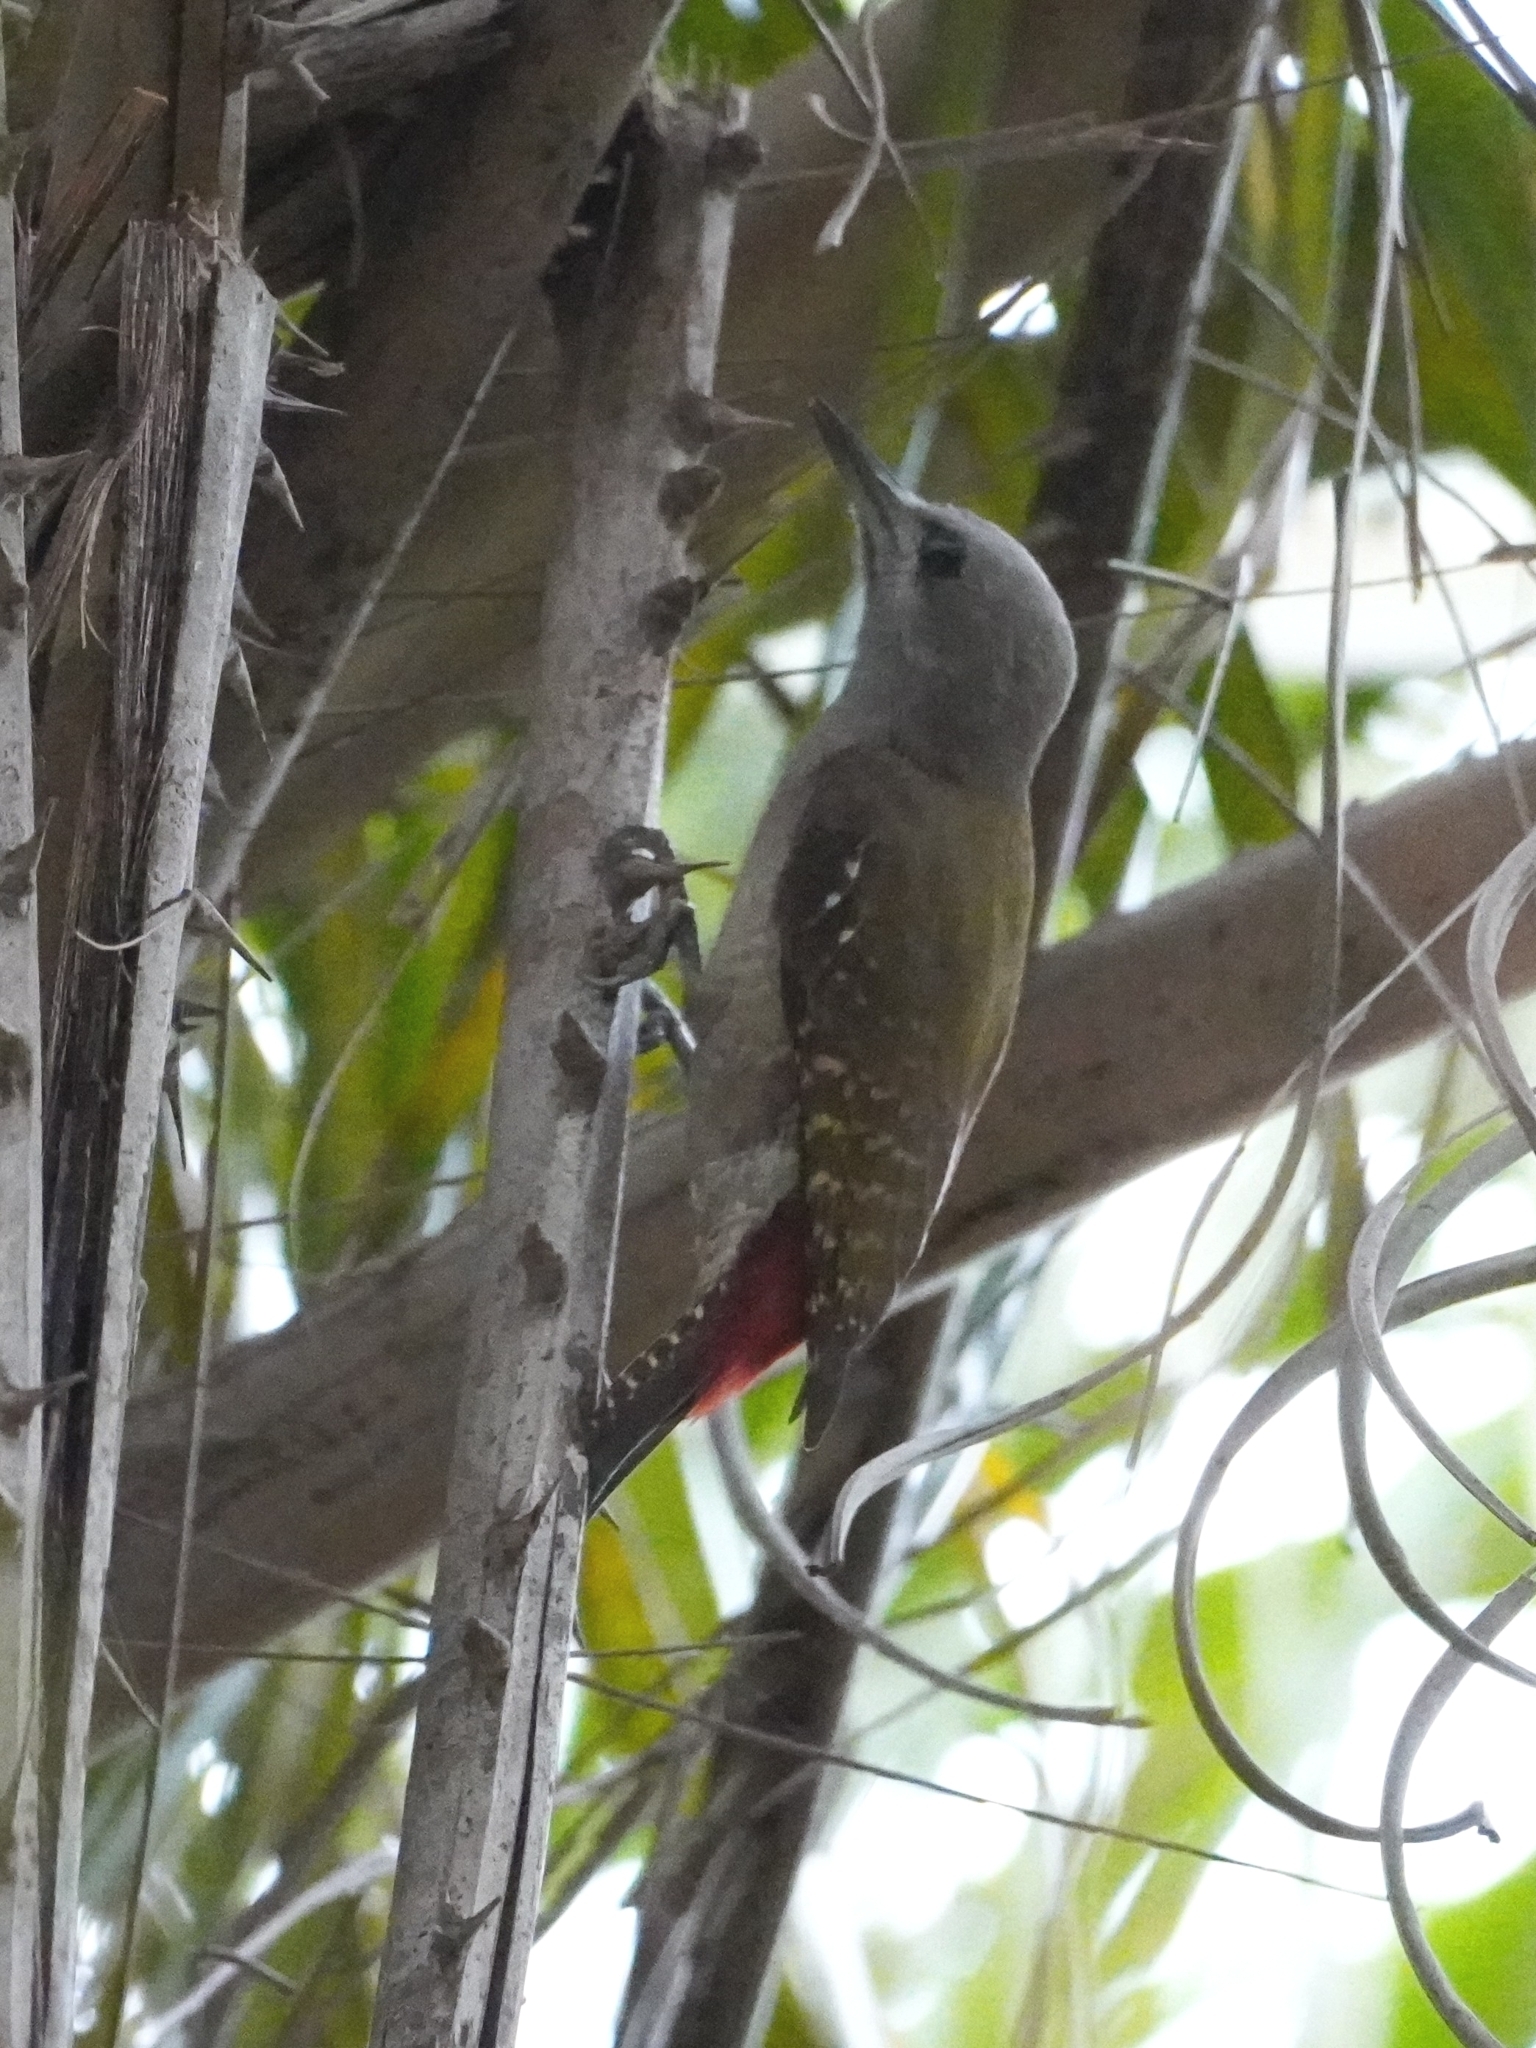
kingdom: Animalia
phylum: Chordata
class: Aves
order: Piciformes
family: Picidae
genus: Dendropicos
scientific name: Dendropicos goertae
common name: African grey woodpecker
